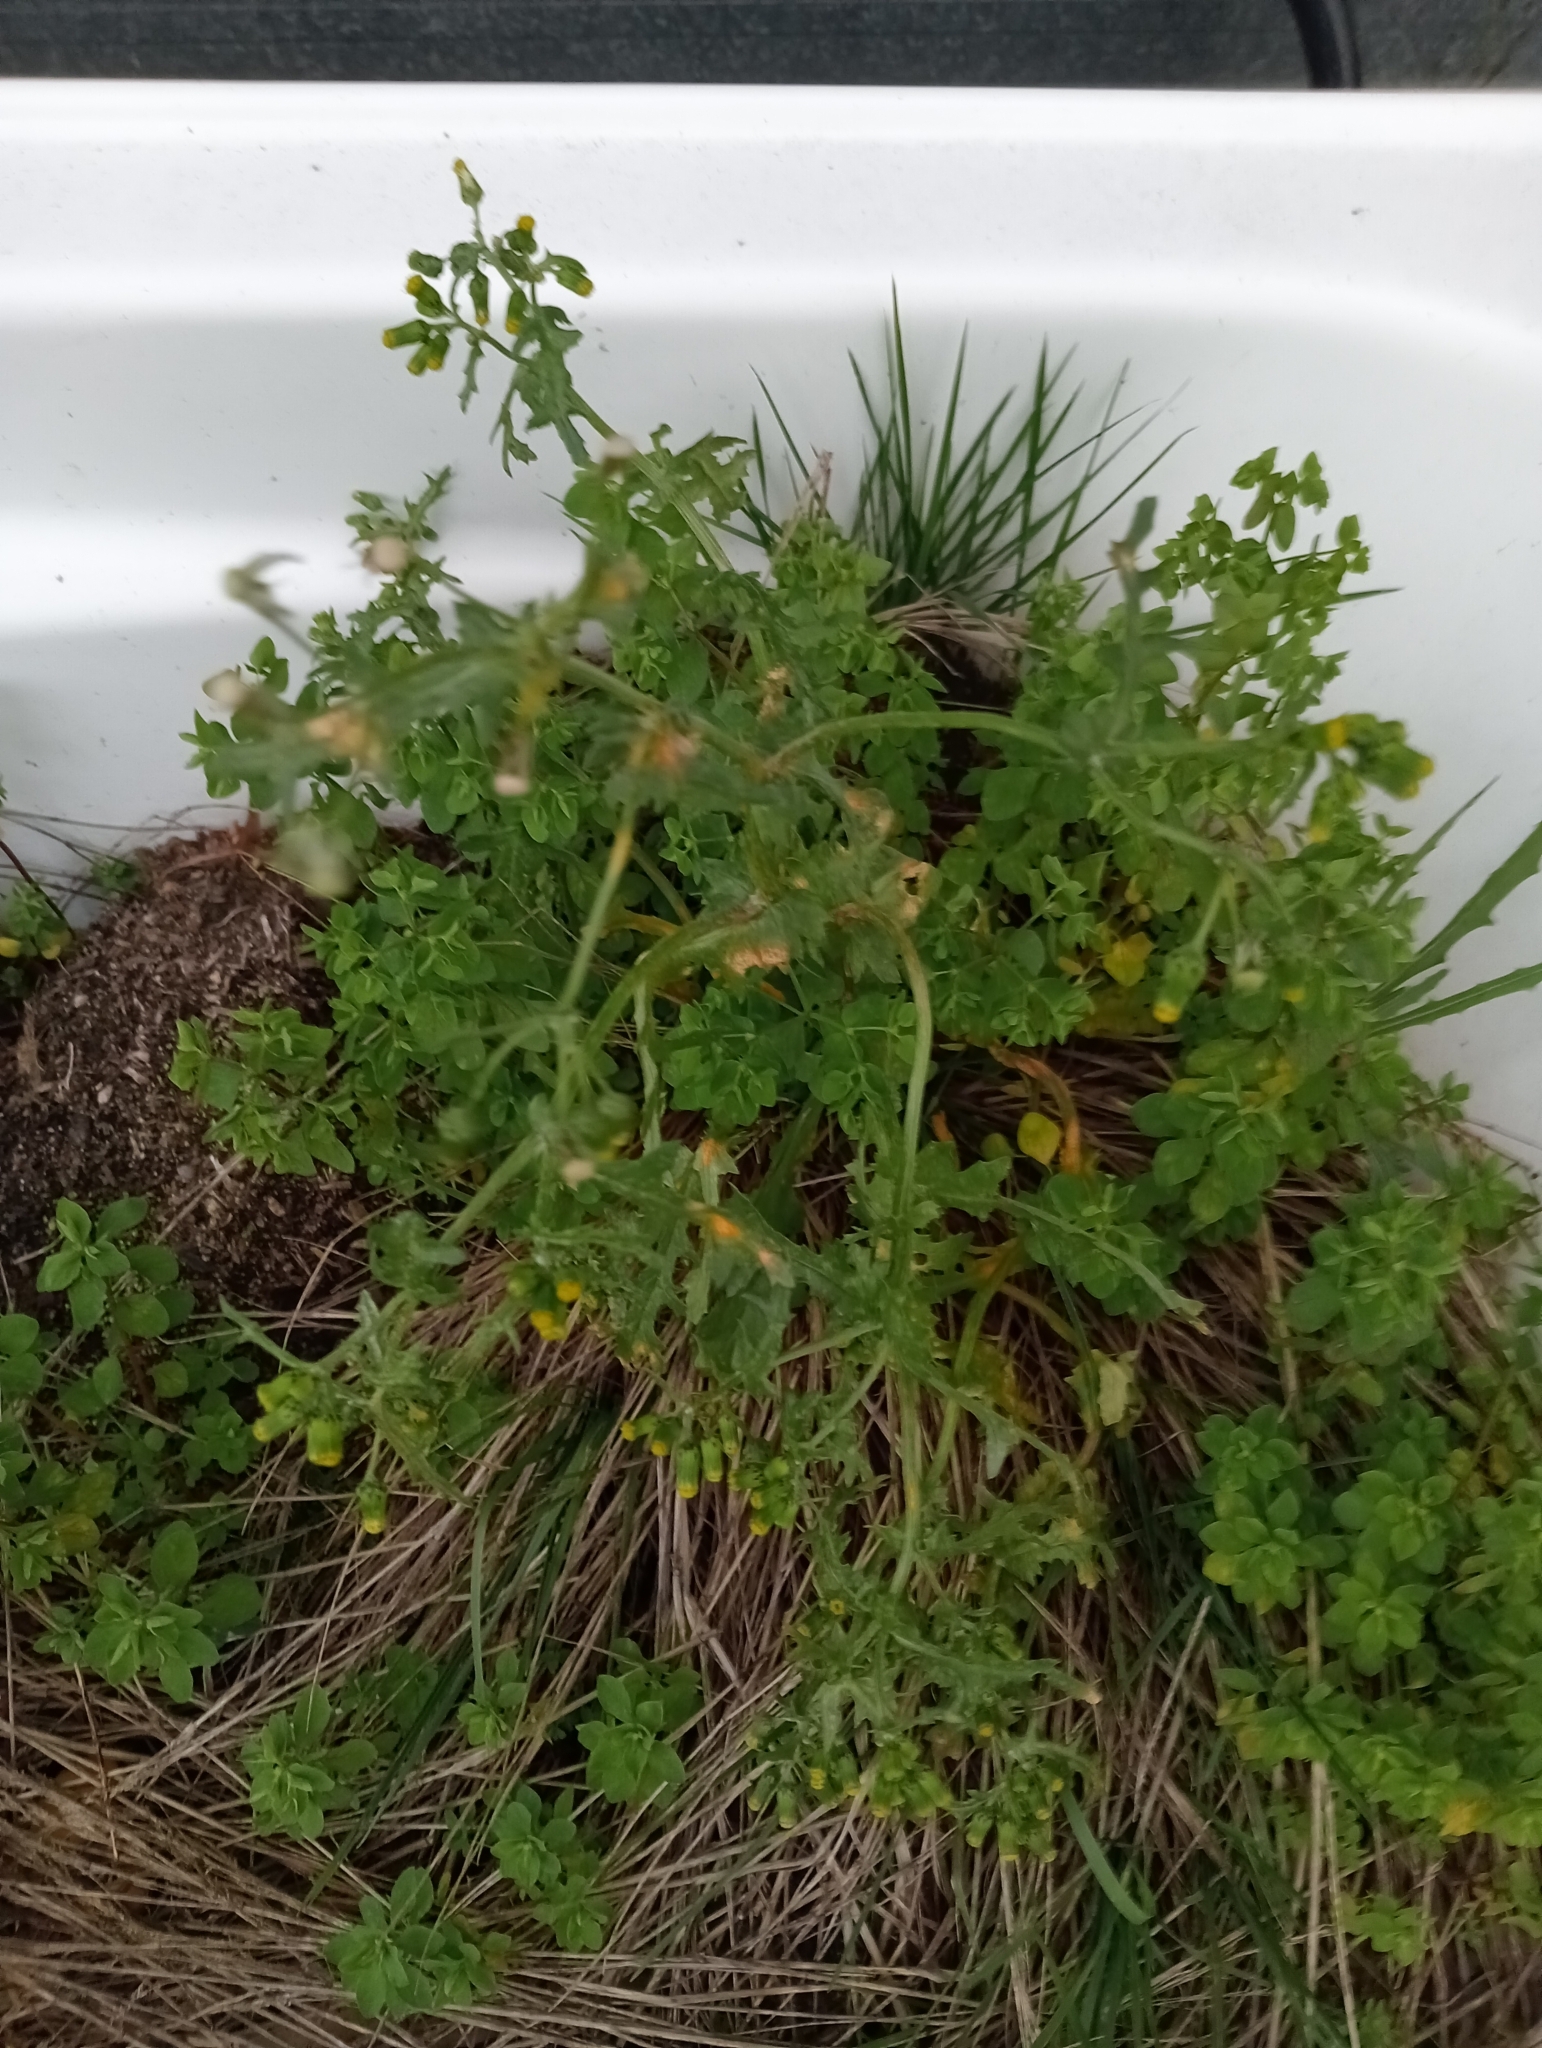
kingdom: Plantae
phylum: Tracheophyta
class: Magnoliopsida
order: Asterales
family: Asteraceae
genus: Senecio
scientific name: Senecio vulgaris
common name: Old-man-in-the-spring
